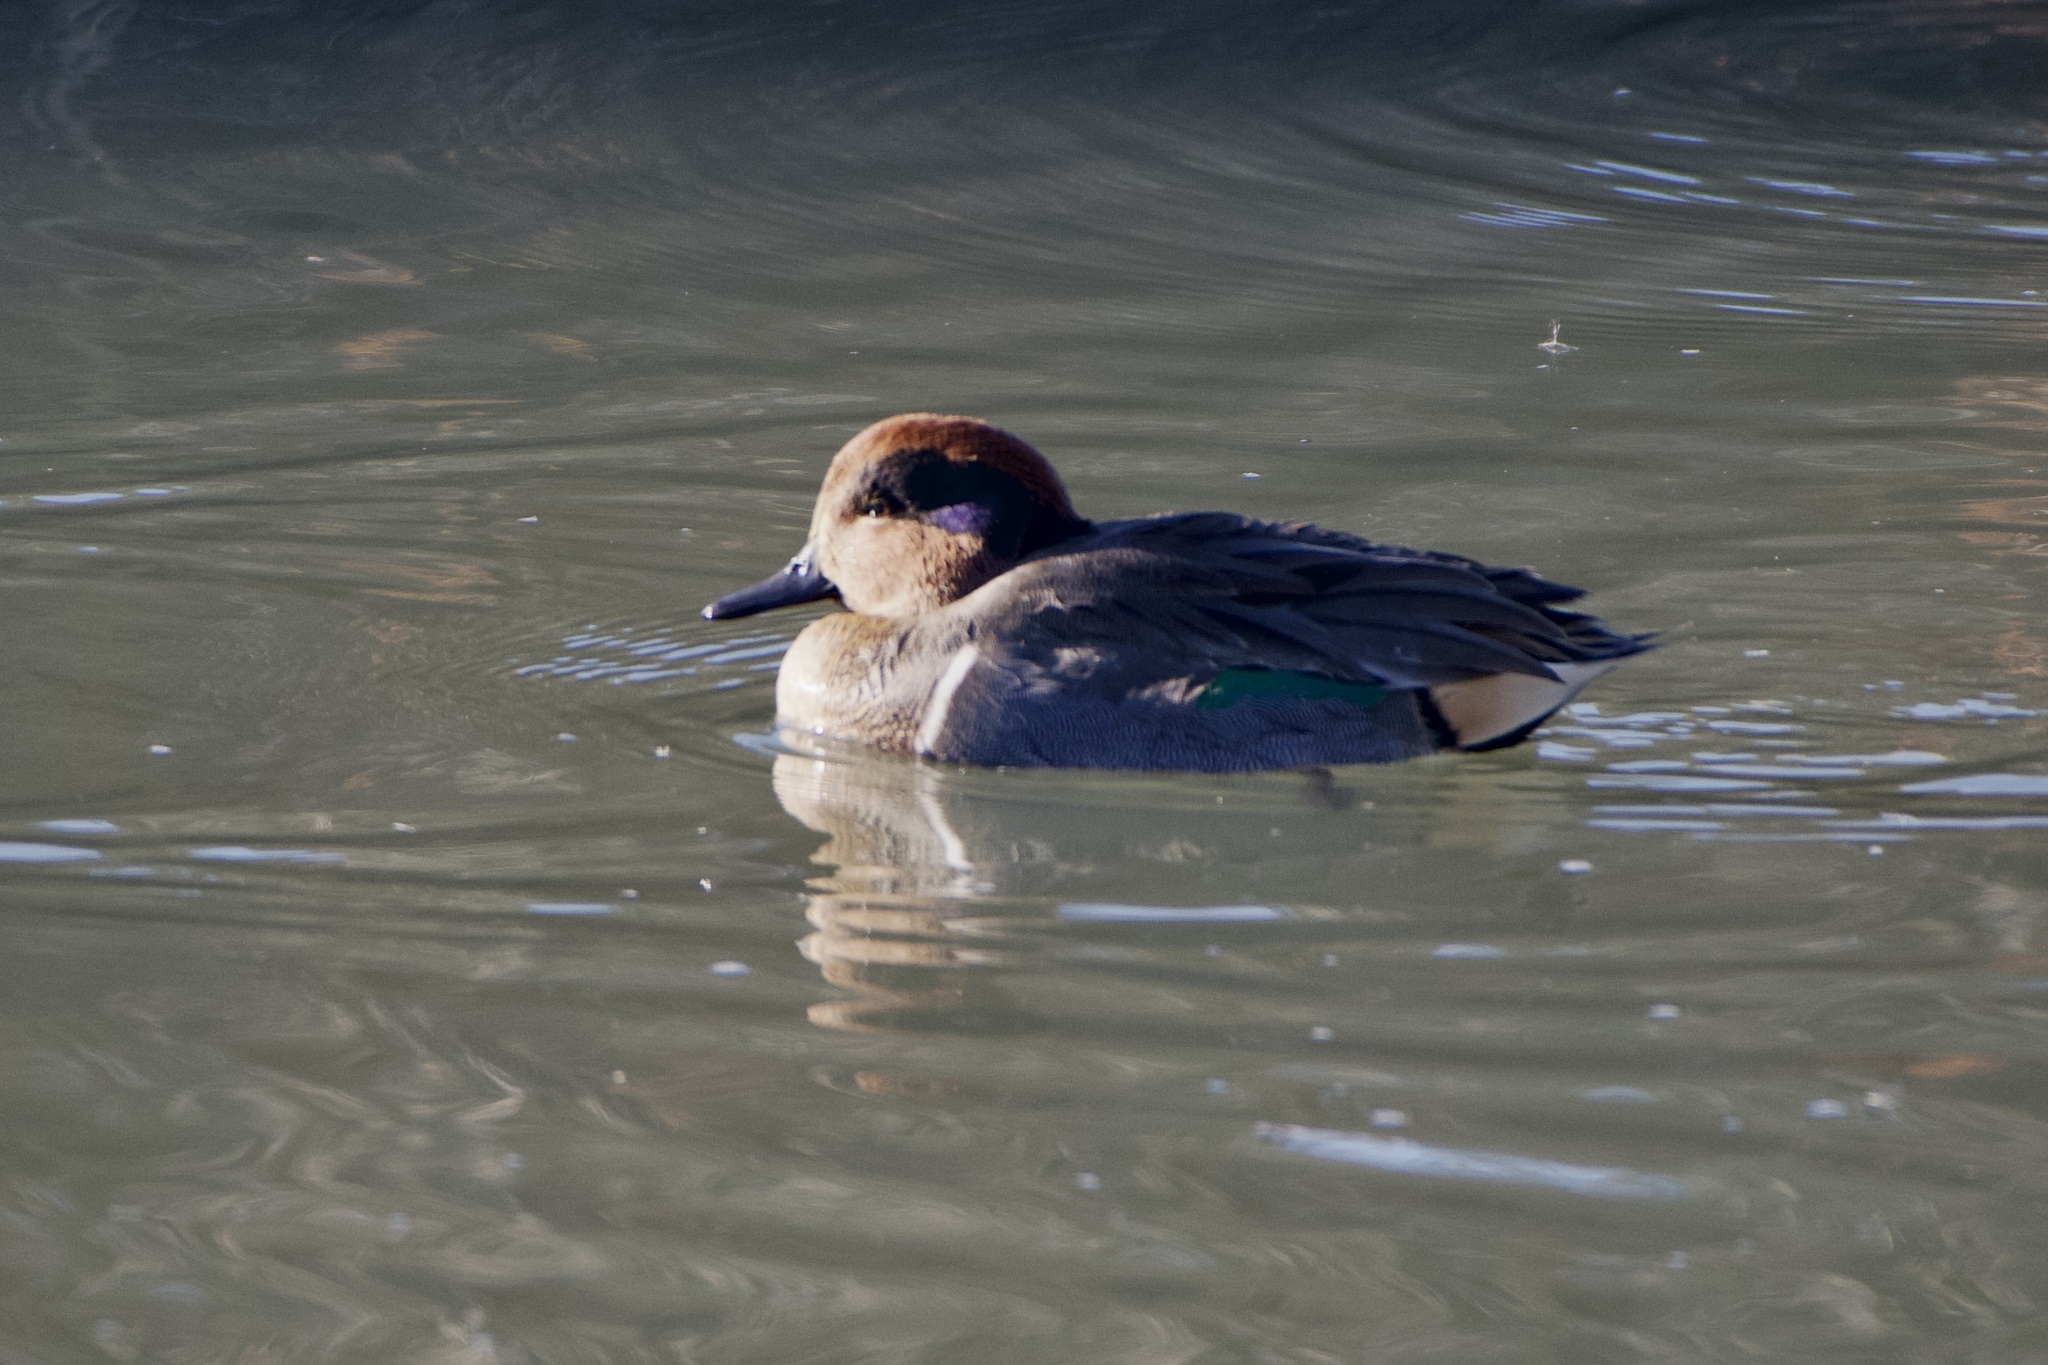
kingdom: Animalia
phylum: Chordata
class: Aves
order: Anseriformes
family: Anatidae
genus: Anas
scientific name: Anas carolinensis
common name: Green-winged teal
